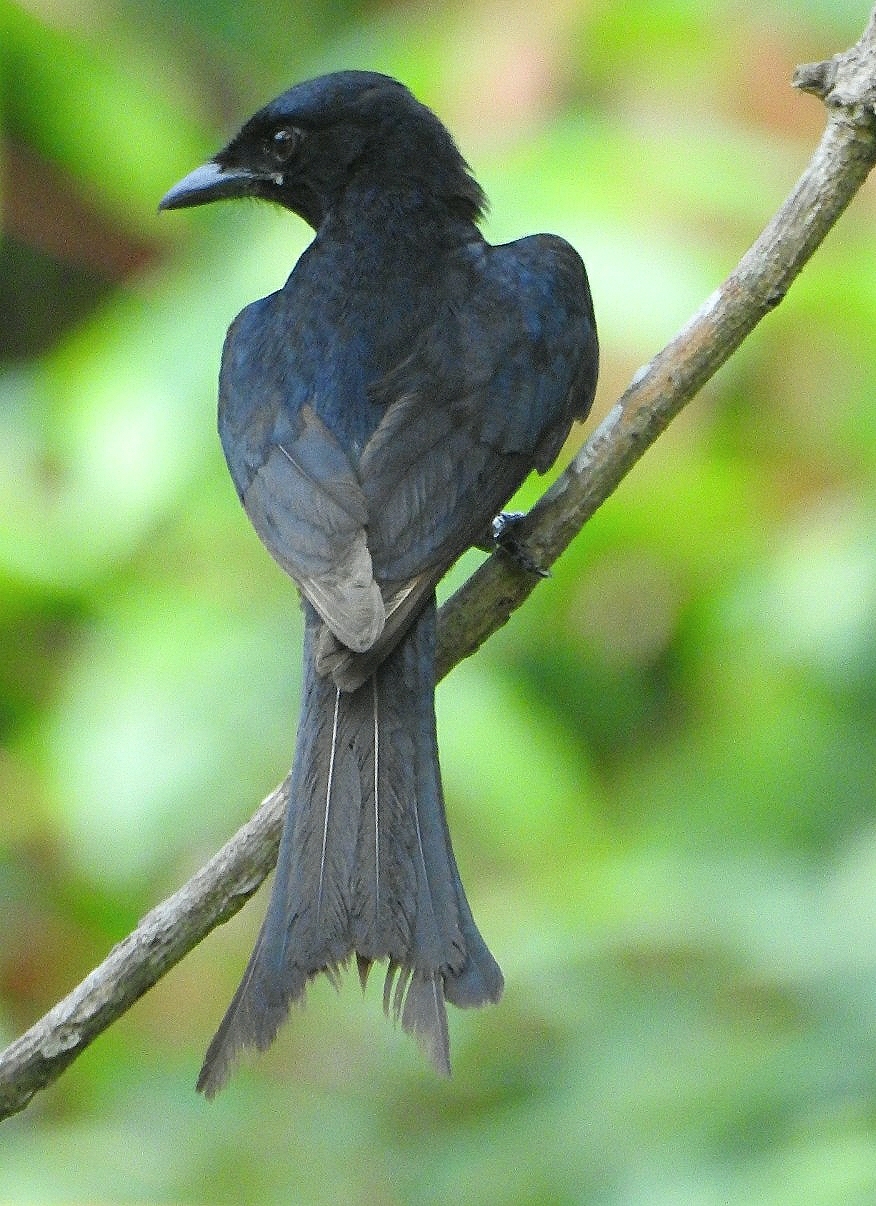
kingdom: Animalia
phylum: Chordata
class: Aves
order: Passeriformes
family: Dicruridae
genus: Dicrurus
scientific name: Dicrurus macrocercus
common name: Black drongo
